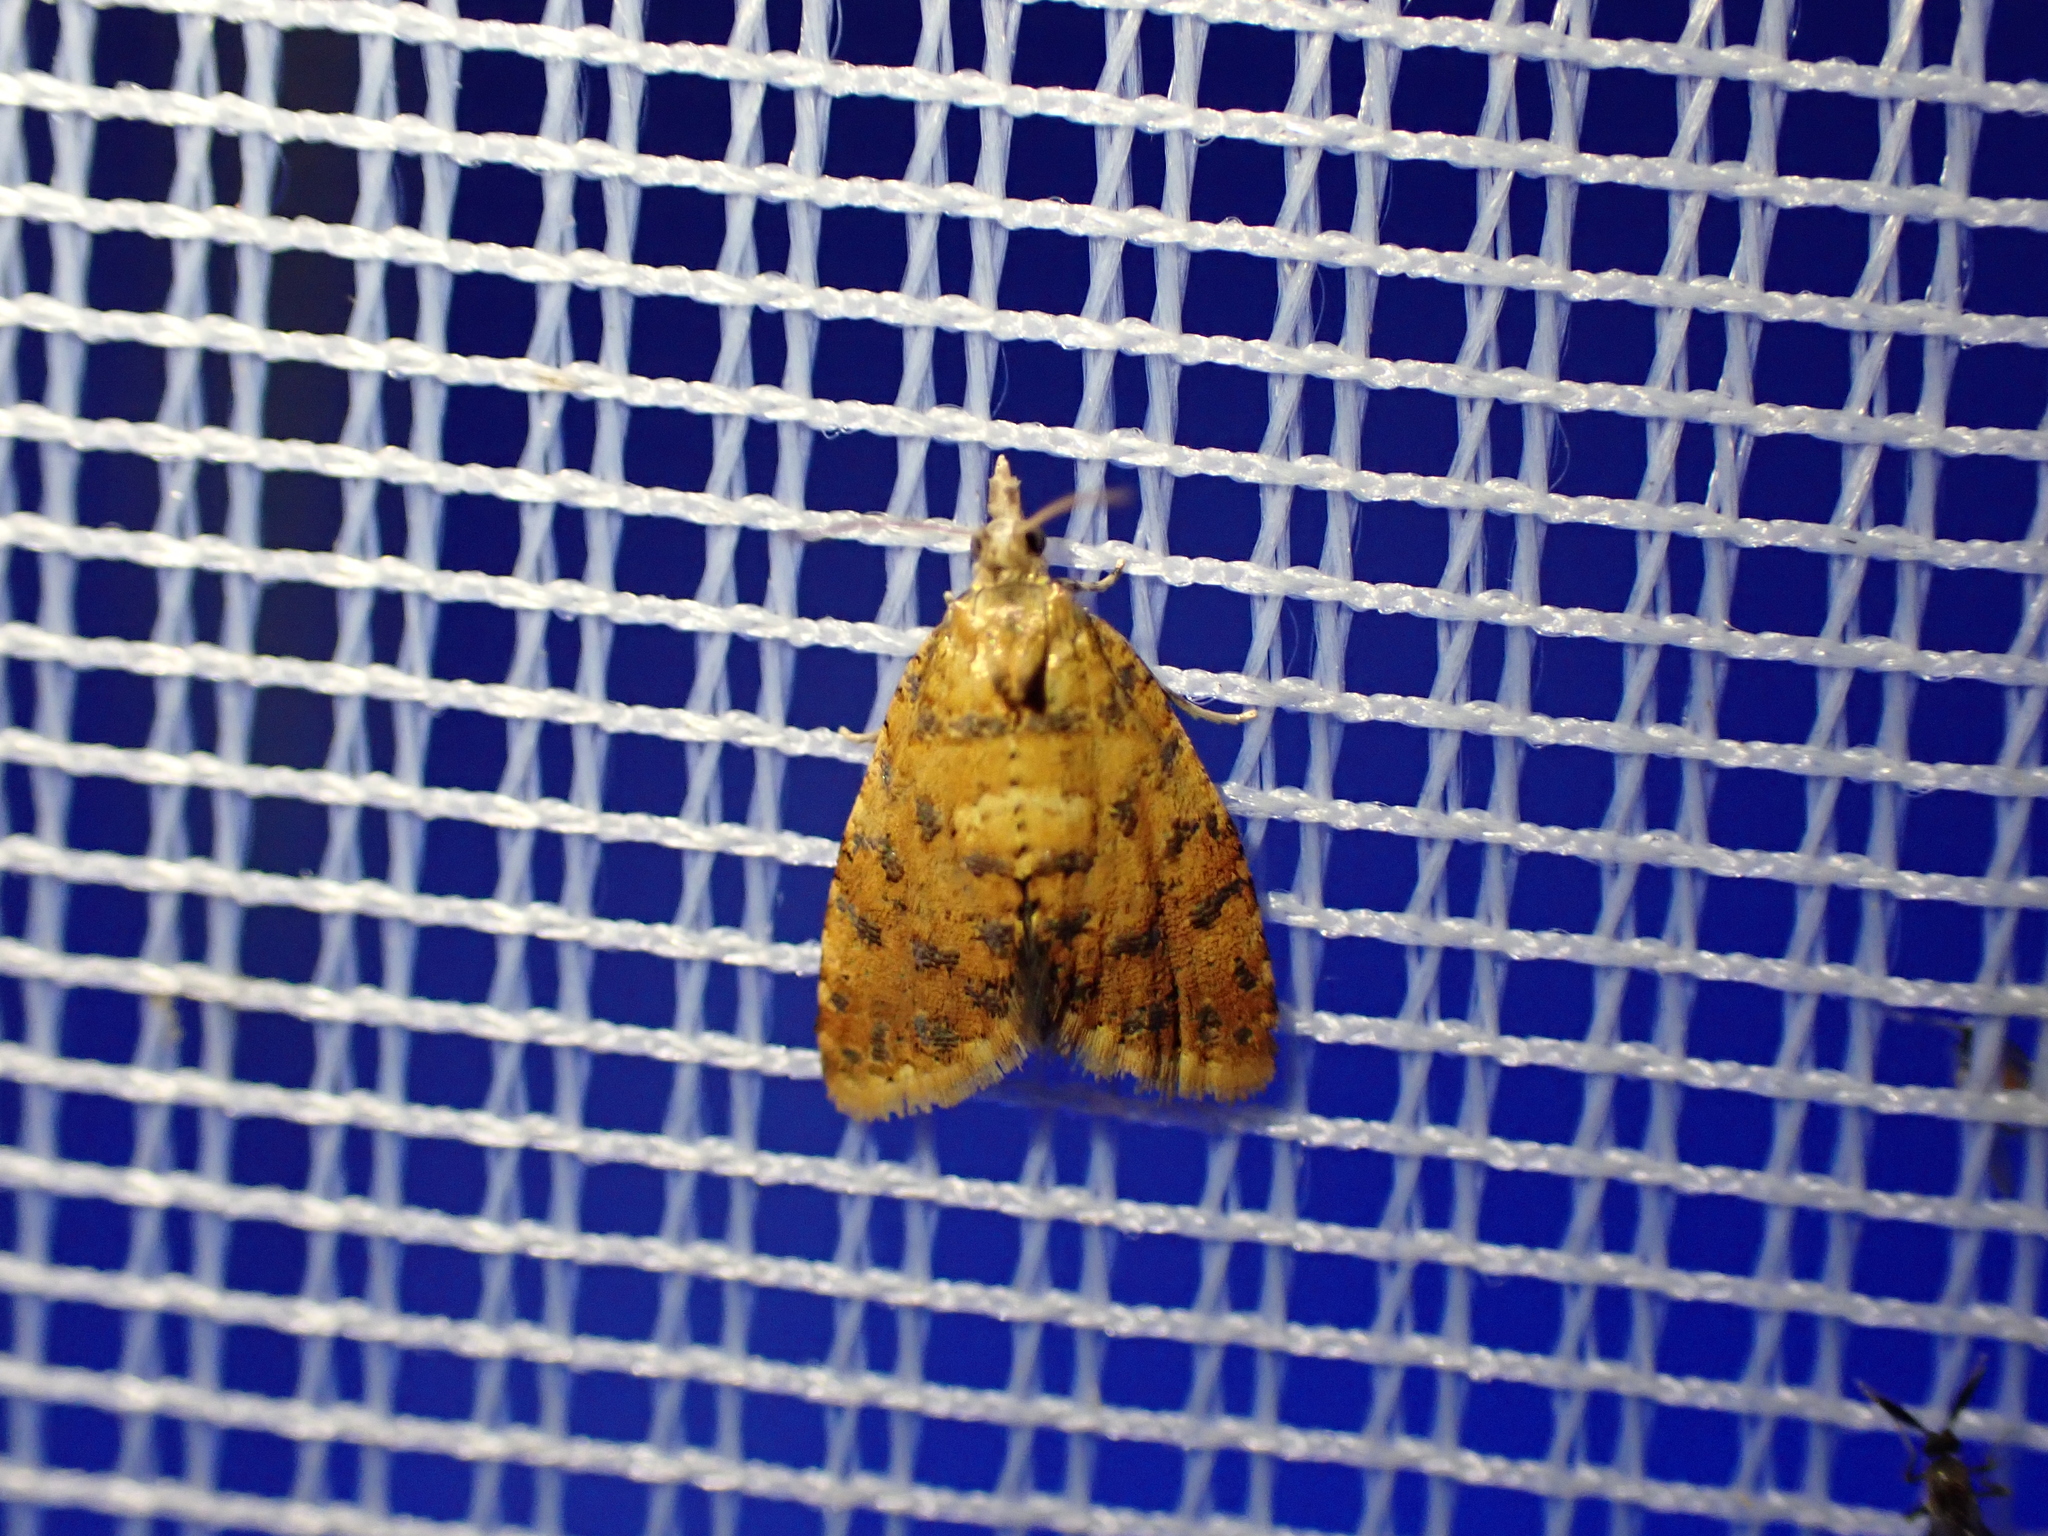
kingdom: Animalia
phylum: Arthropoda
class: Insecta
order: Lepidoptera
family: Tortricidae
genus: Pseudargyrotoza
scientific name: Pseudargyrotoza conwagana
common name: Yellow-spot twist
